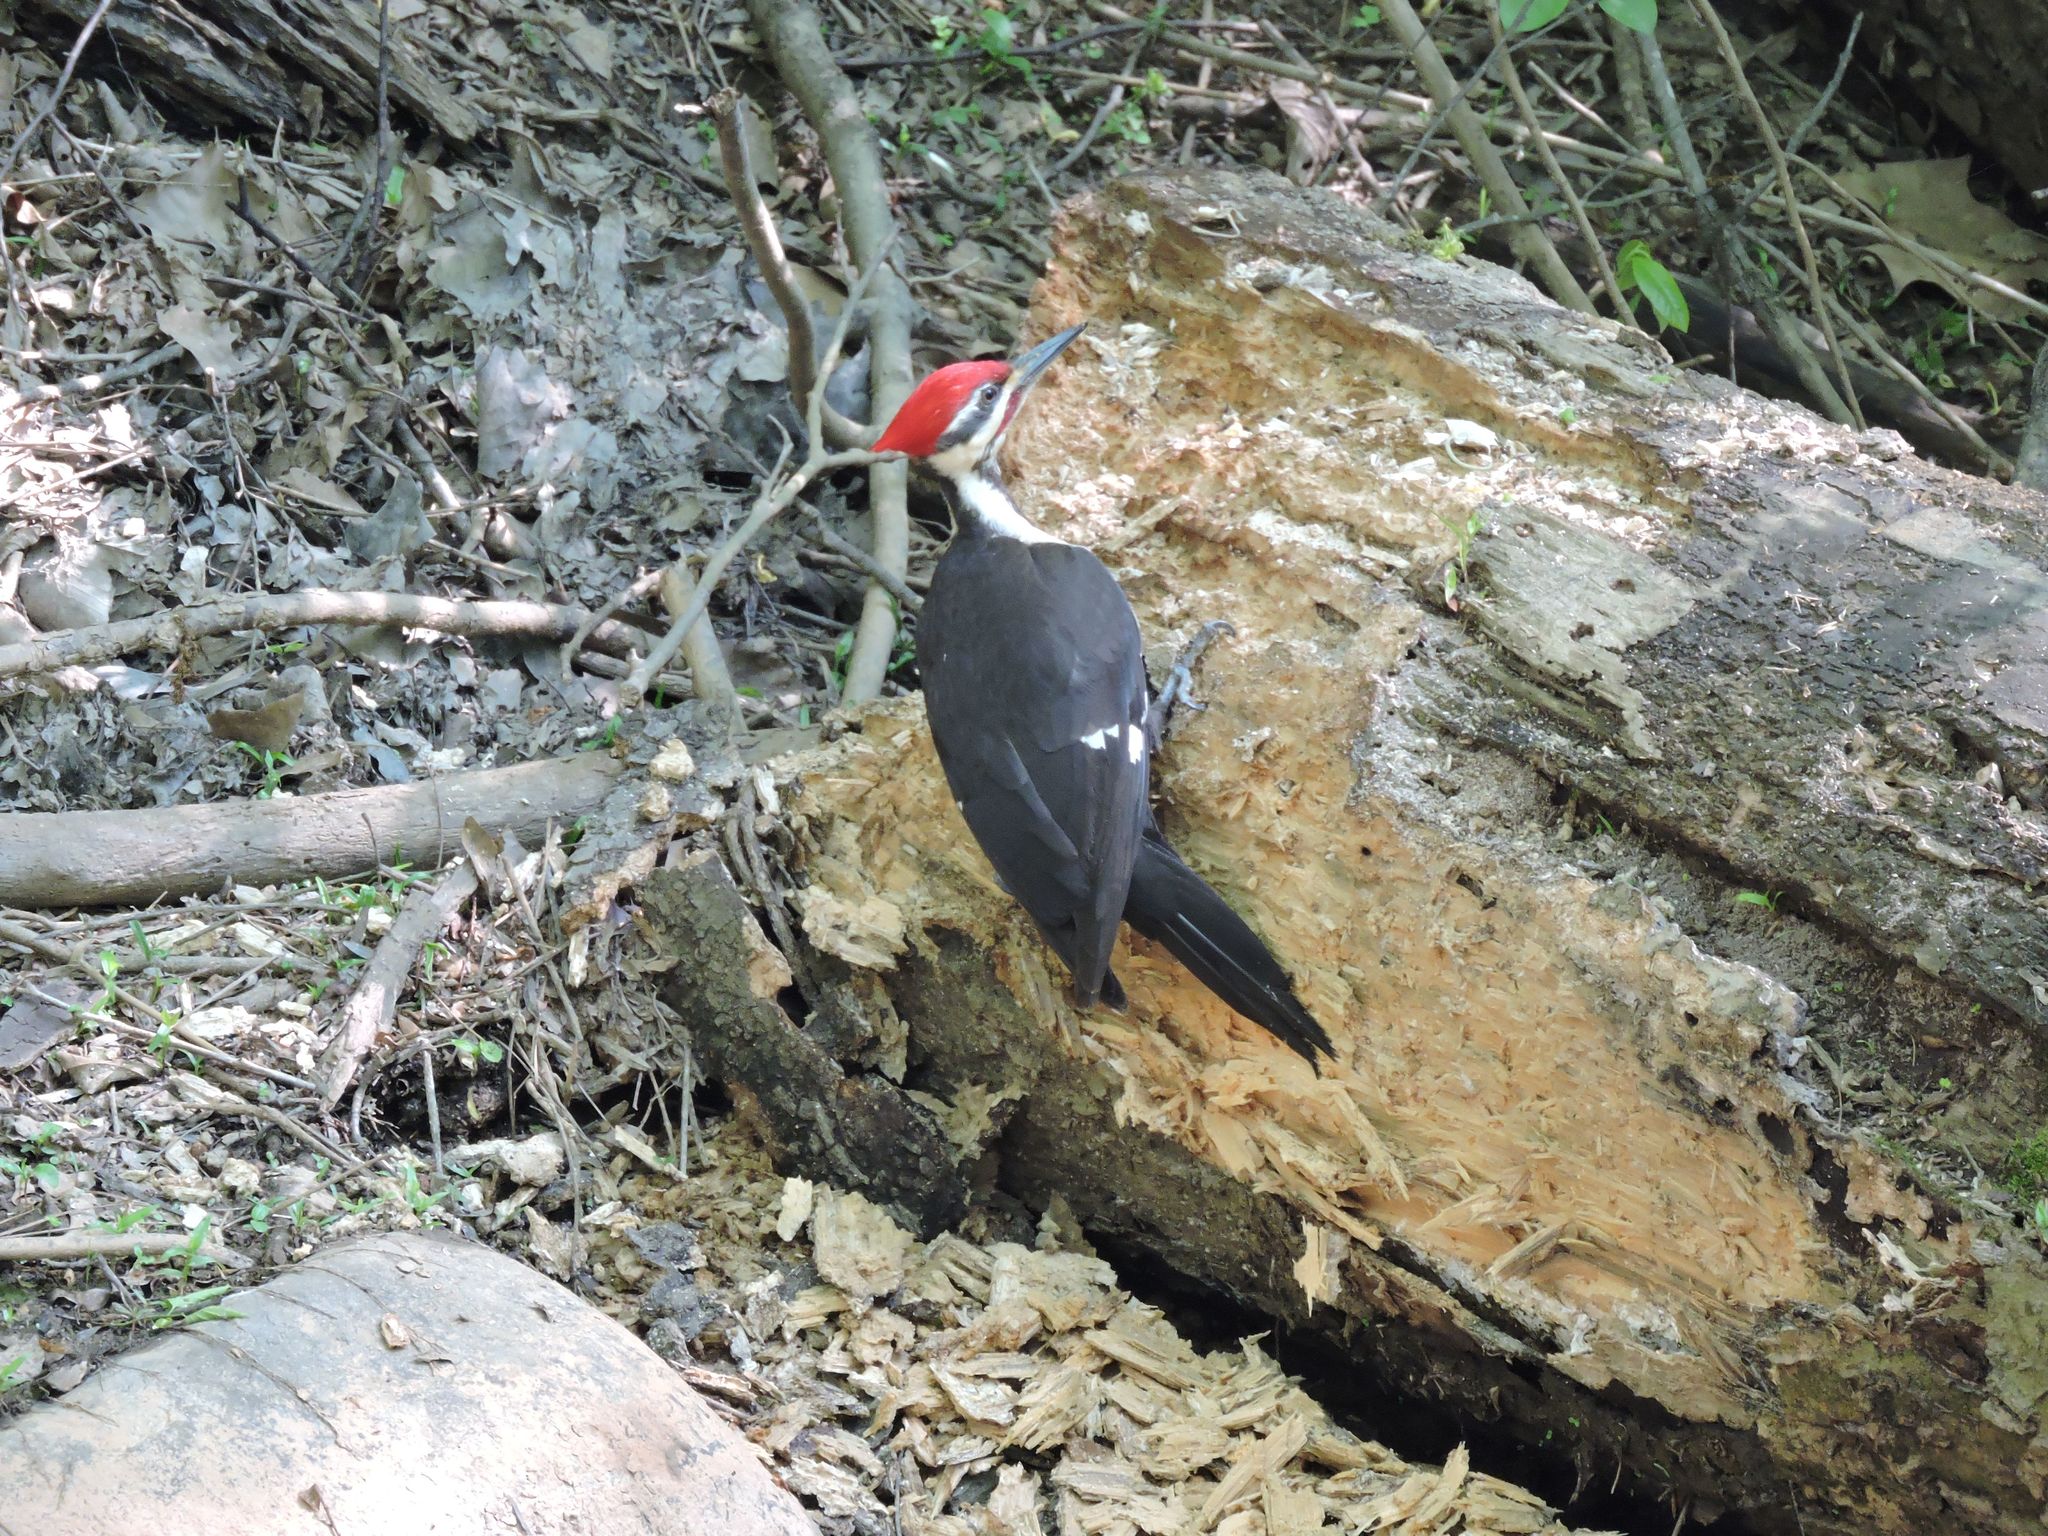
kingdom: Animalia
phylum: Chordata
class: Aves
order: Piciformes
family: Picidae
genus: Dryocopus
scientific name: Dryocopus pileatus
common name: Pileated woodpecker
